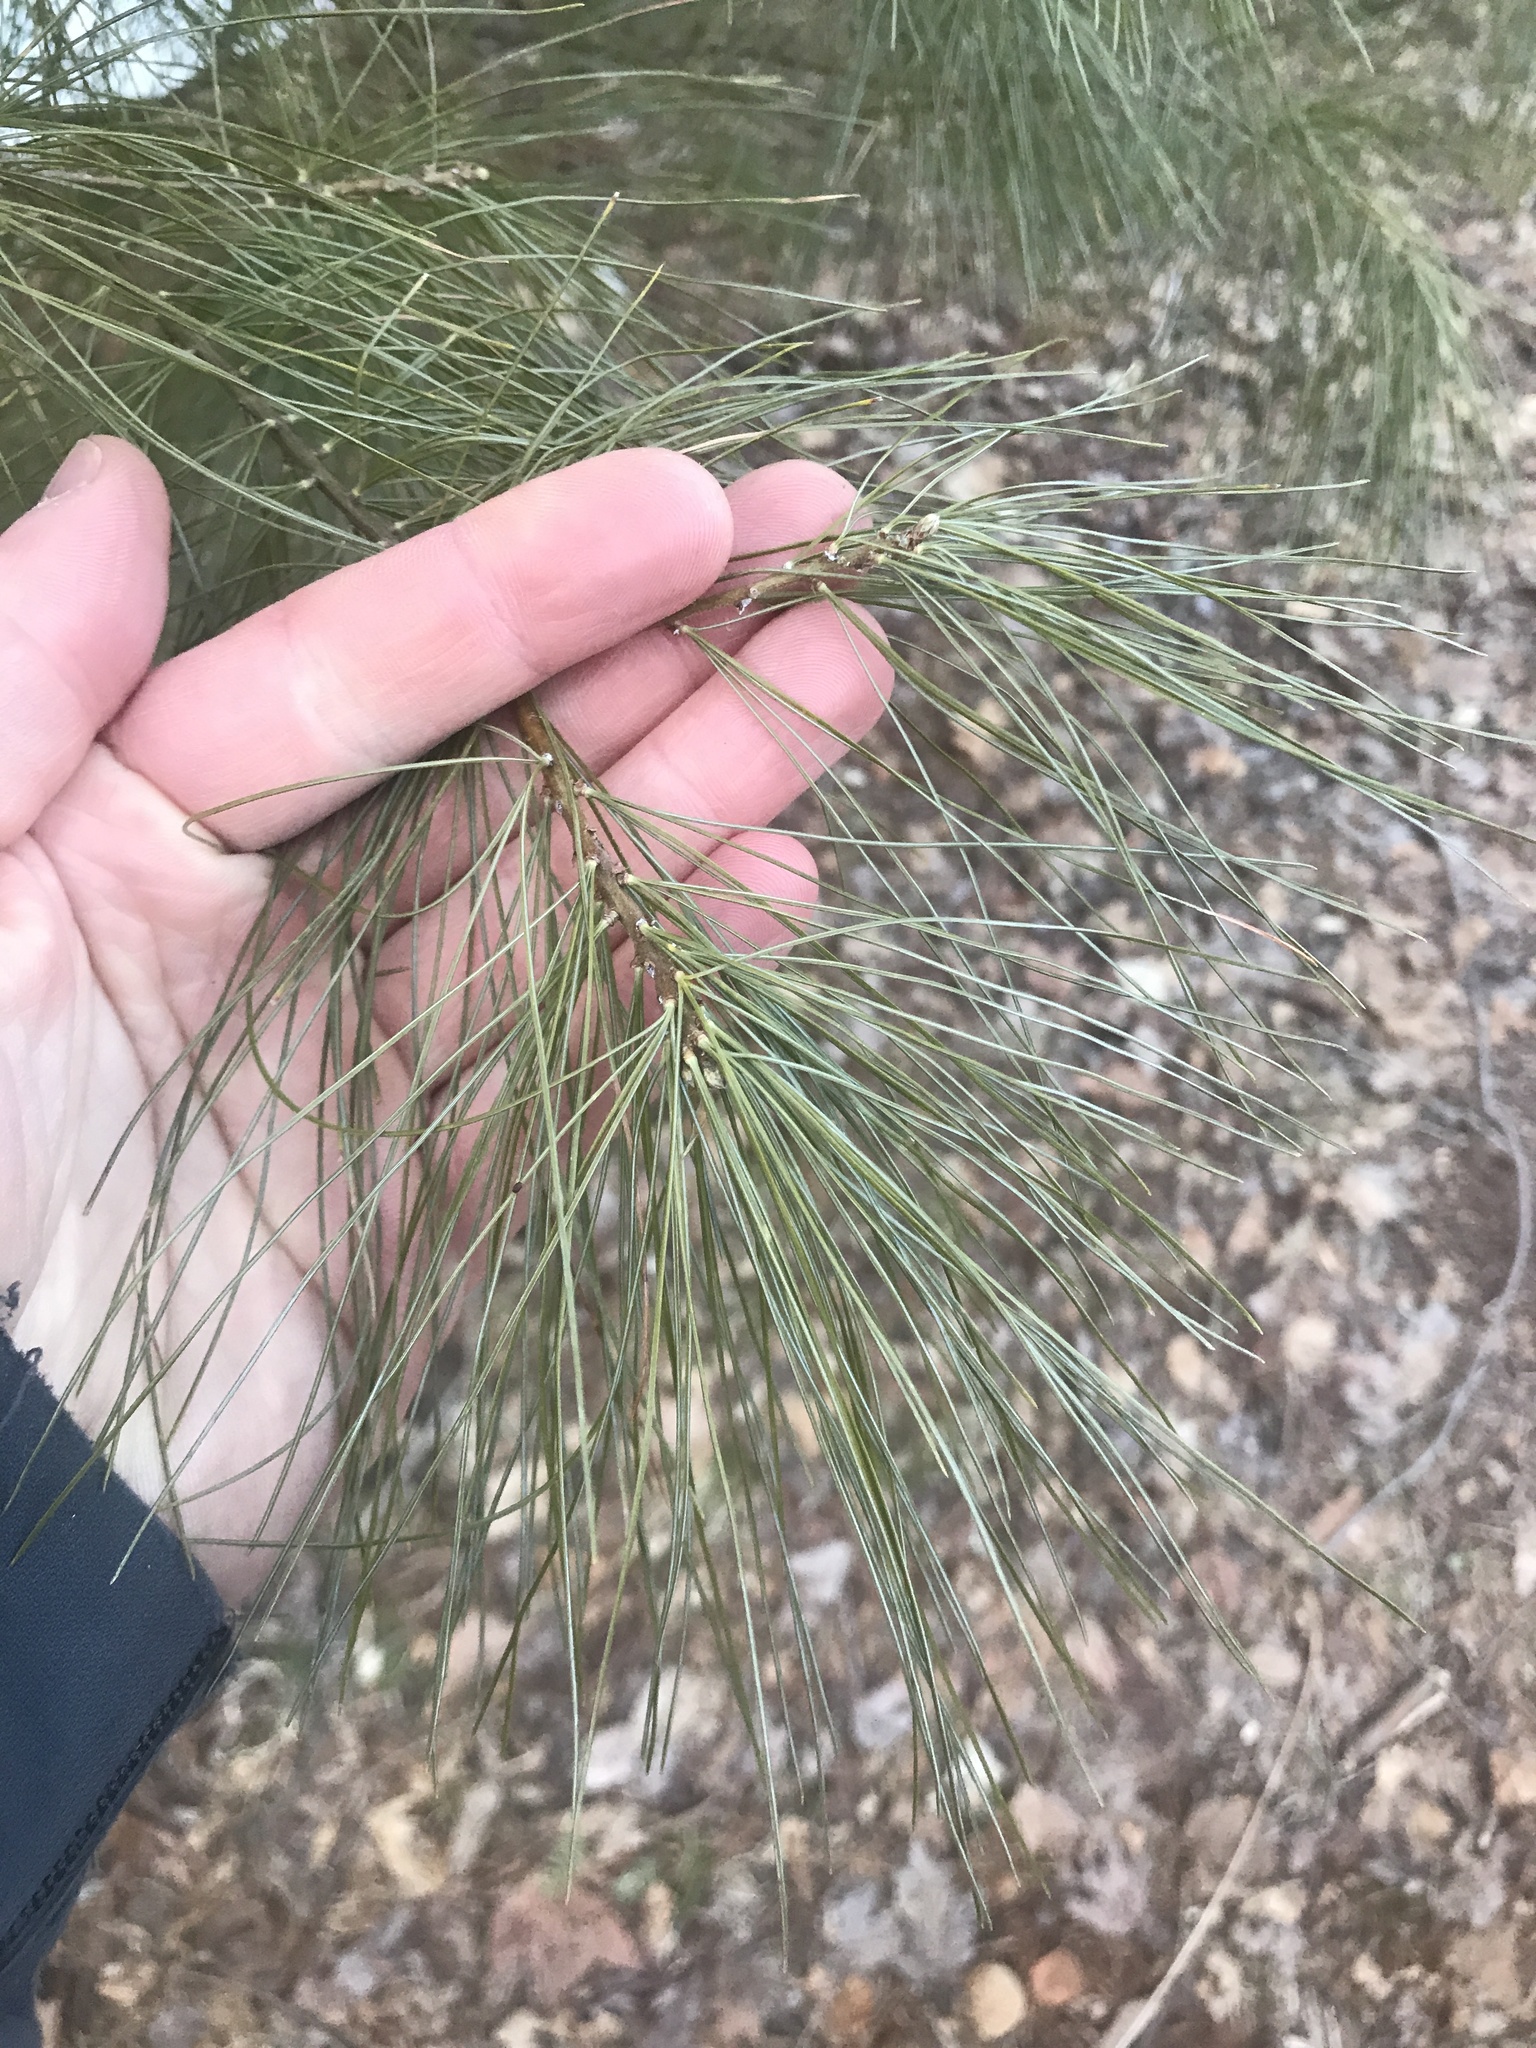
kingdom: Plantae
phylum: Tracheophyta
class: Pinopsida
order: Pinales
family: Pinaceae
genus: Pinus
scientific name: Pinus strobus
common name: Weymouth pine
